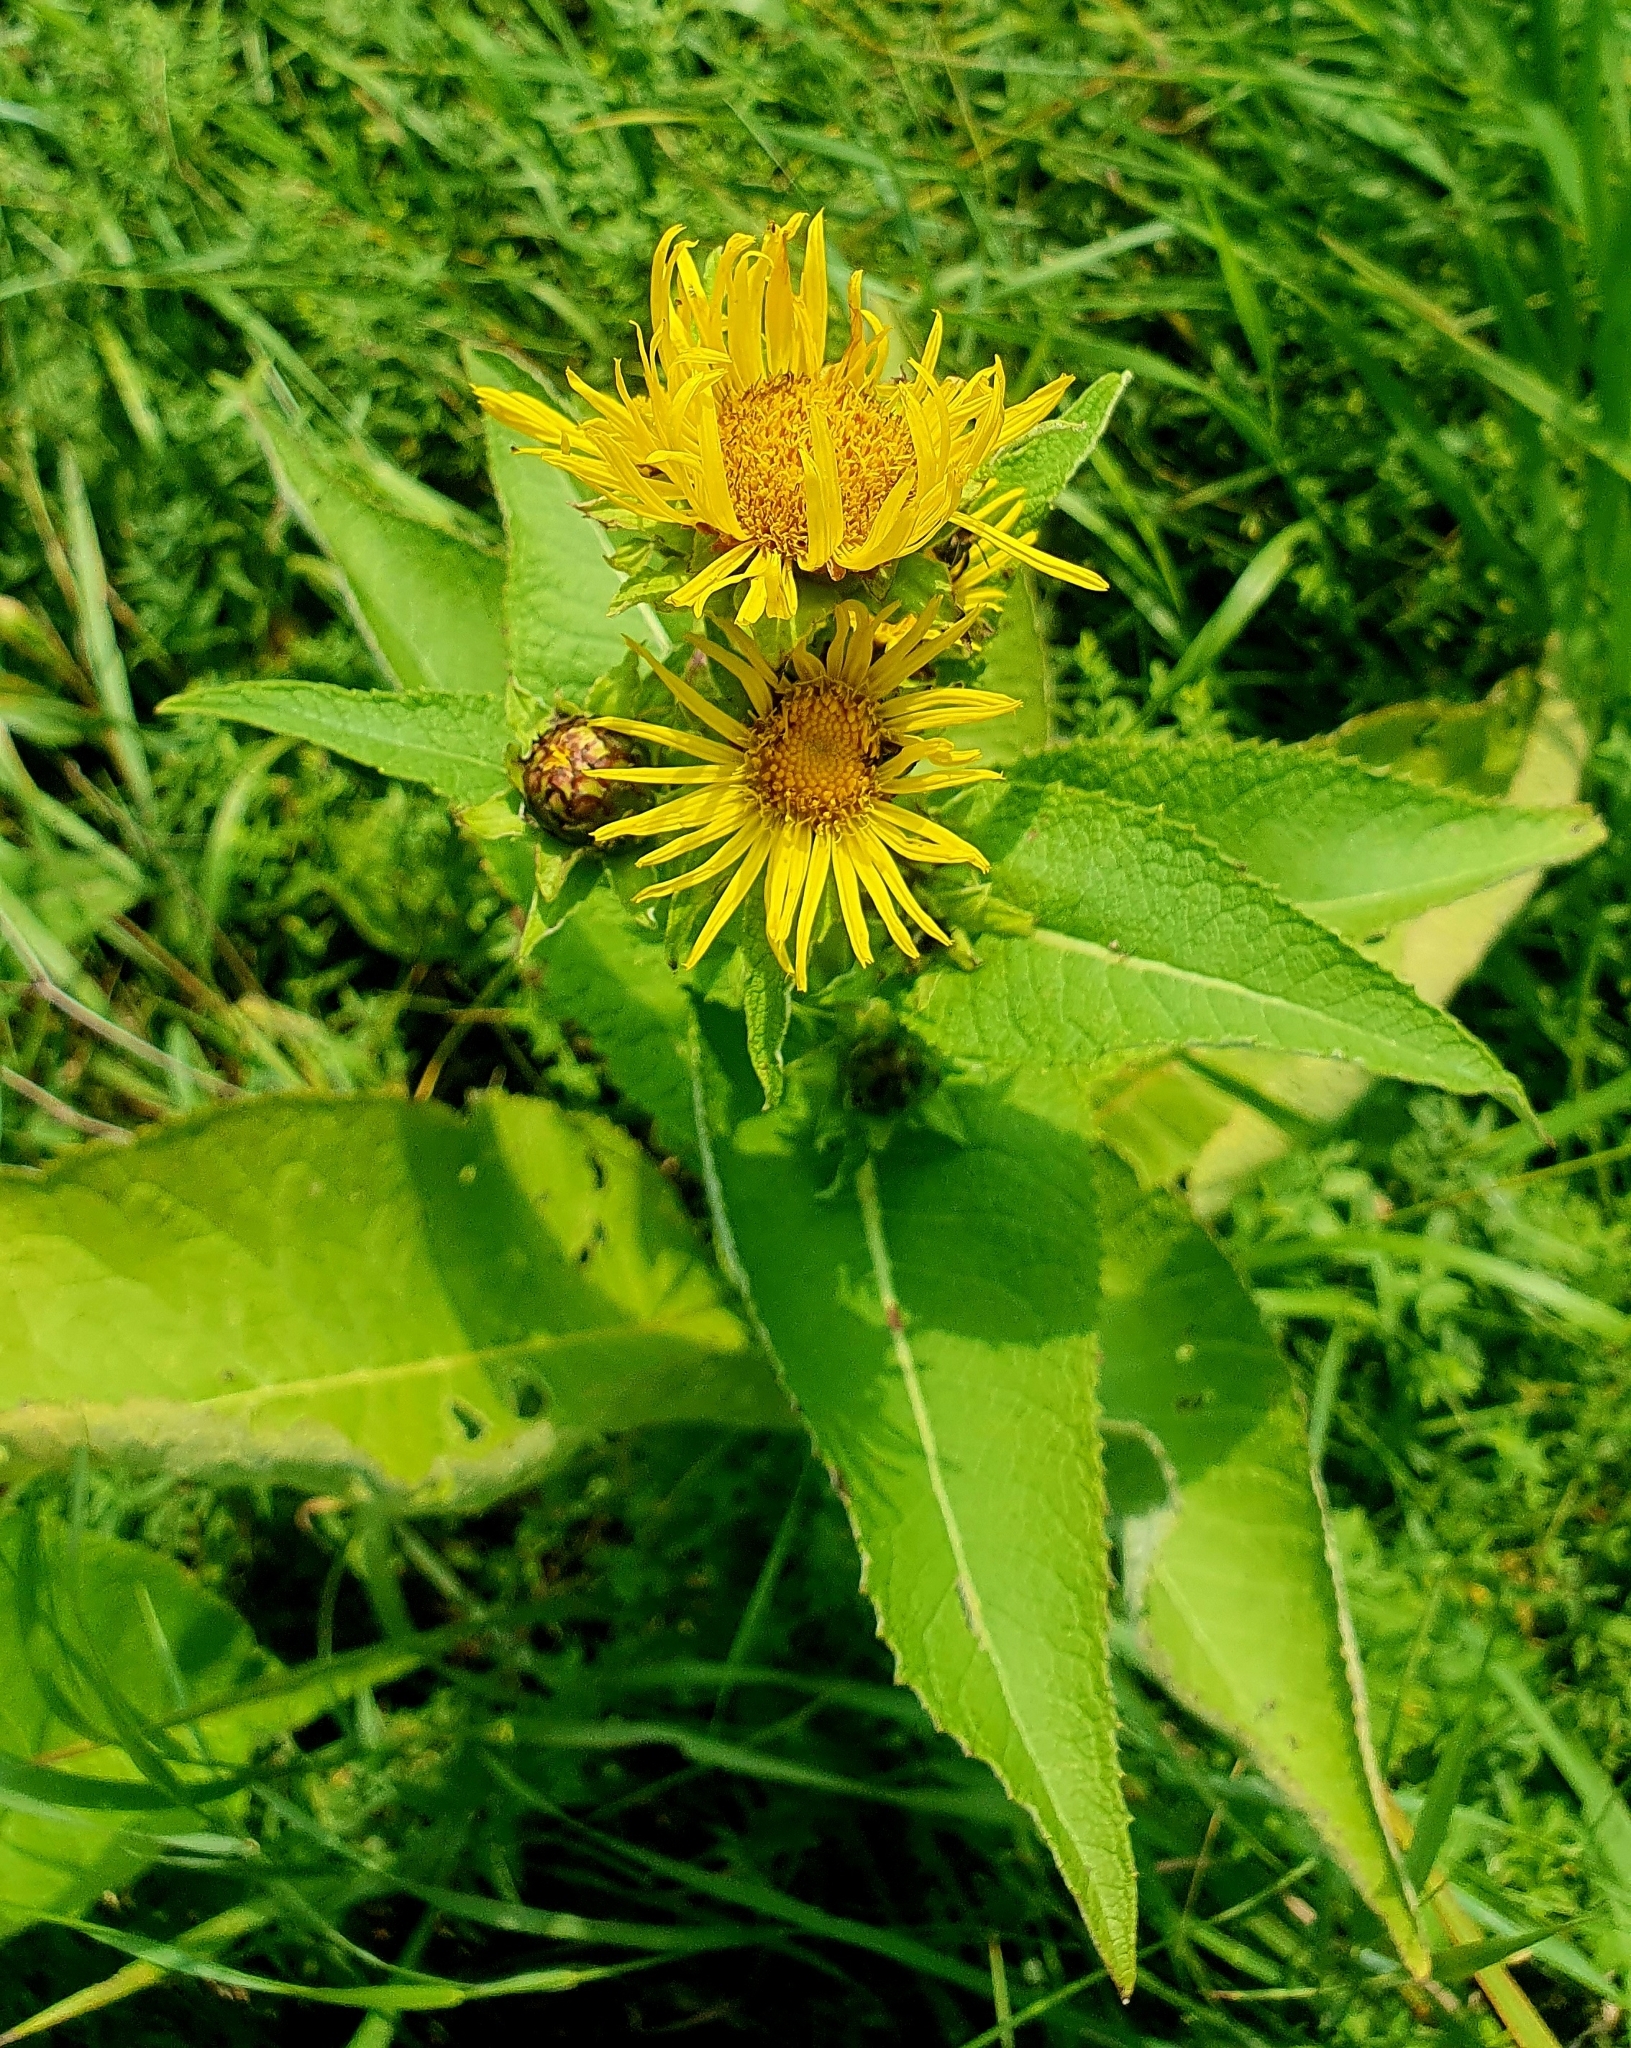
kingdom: Plantae
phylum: Tracheophyta
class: Magnoliopsida
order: Asterales
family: Asteraceae
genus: Inula
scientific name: Inula helenium
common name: Elecampane
